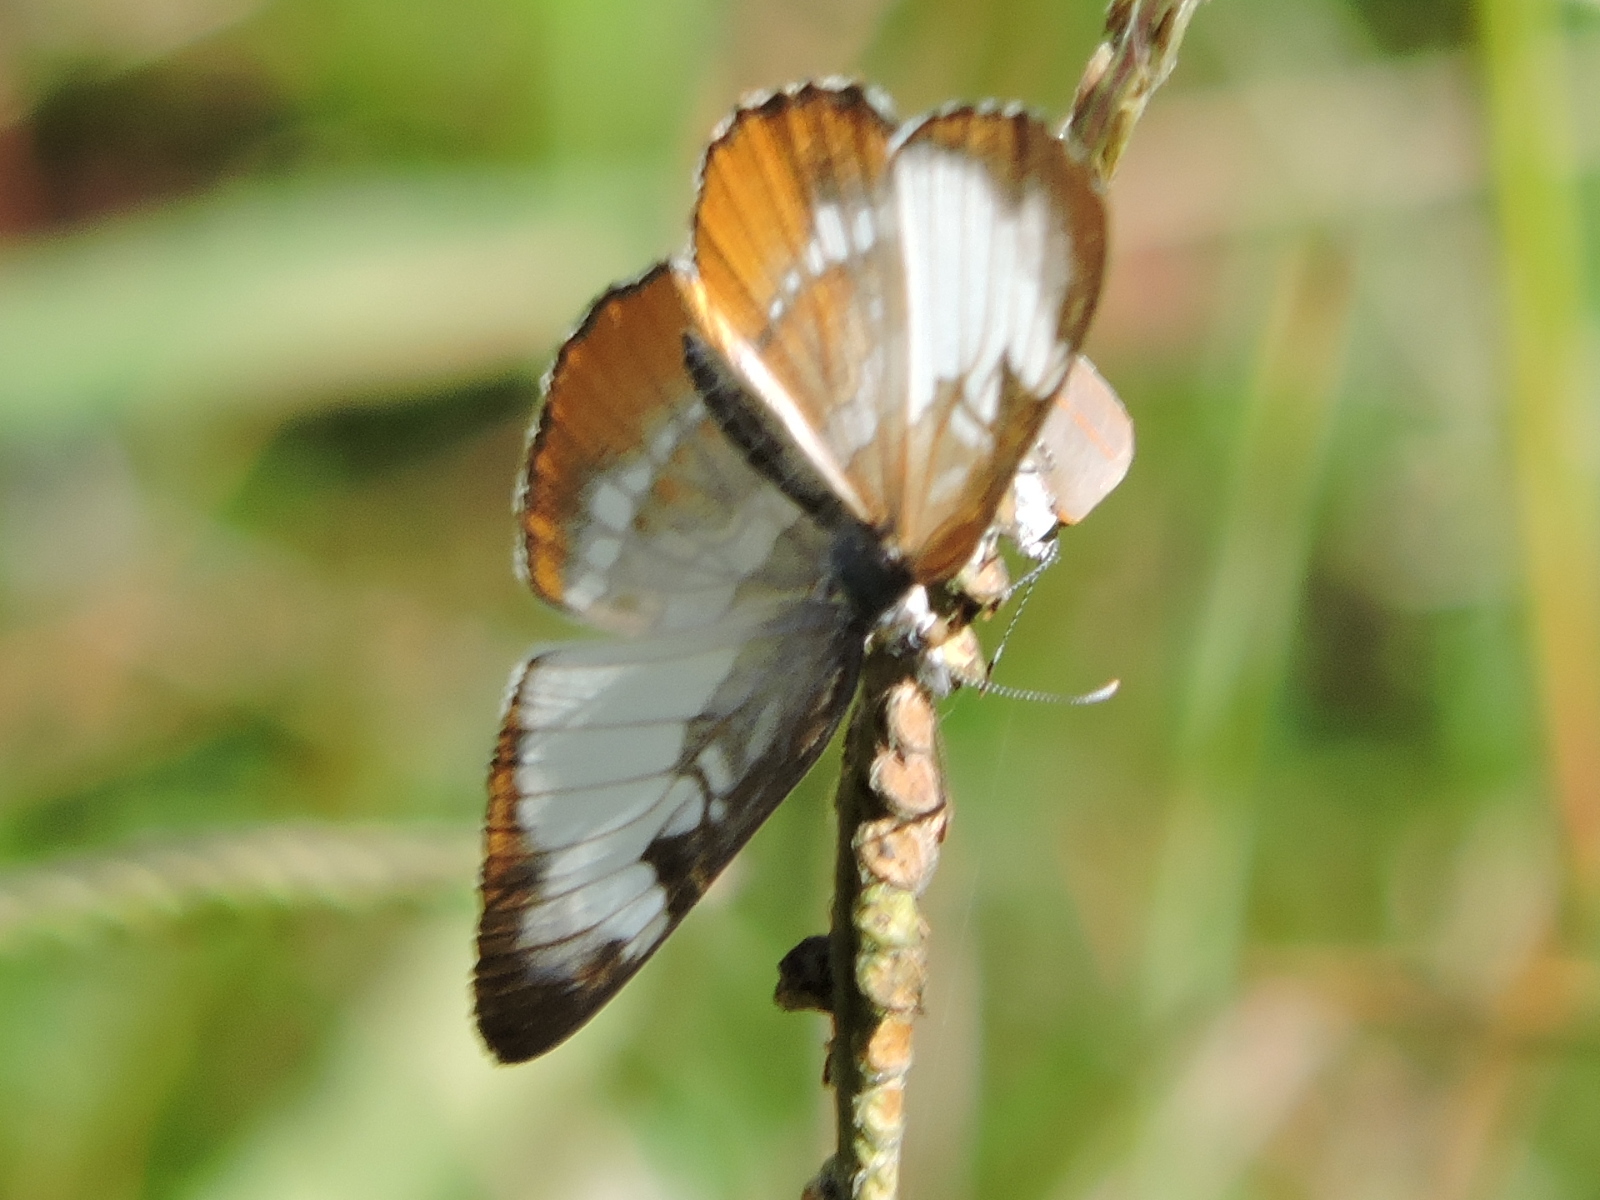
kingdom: Animalia
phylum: Arthropoda
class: Insecta
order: Lepidoptera
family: Nymphalidae
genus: Mestra
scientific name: Mestra amymone
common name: Common mestra
